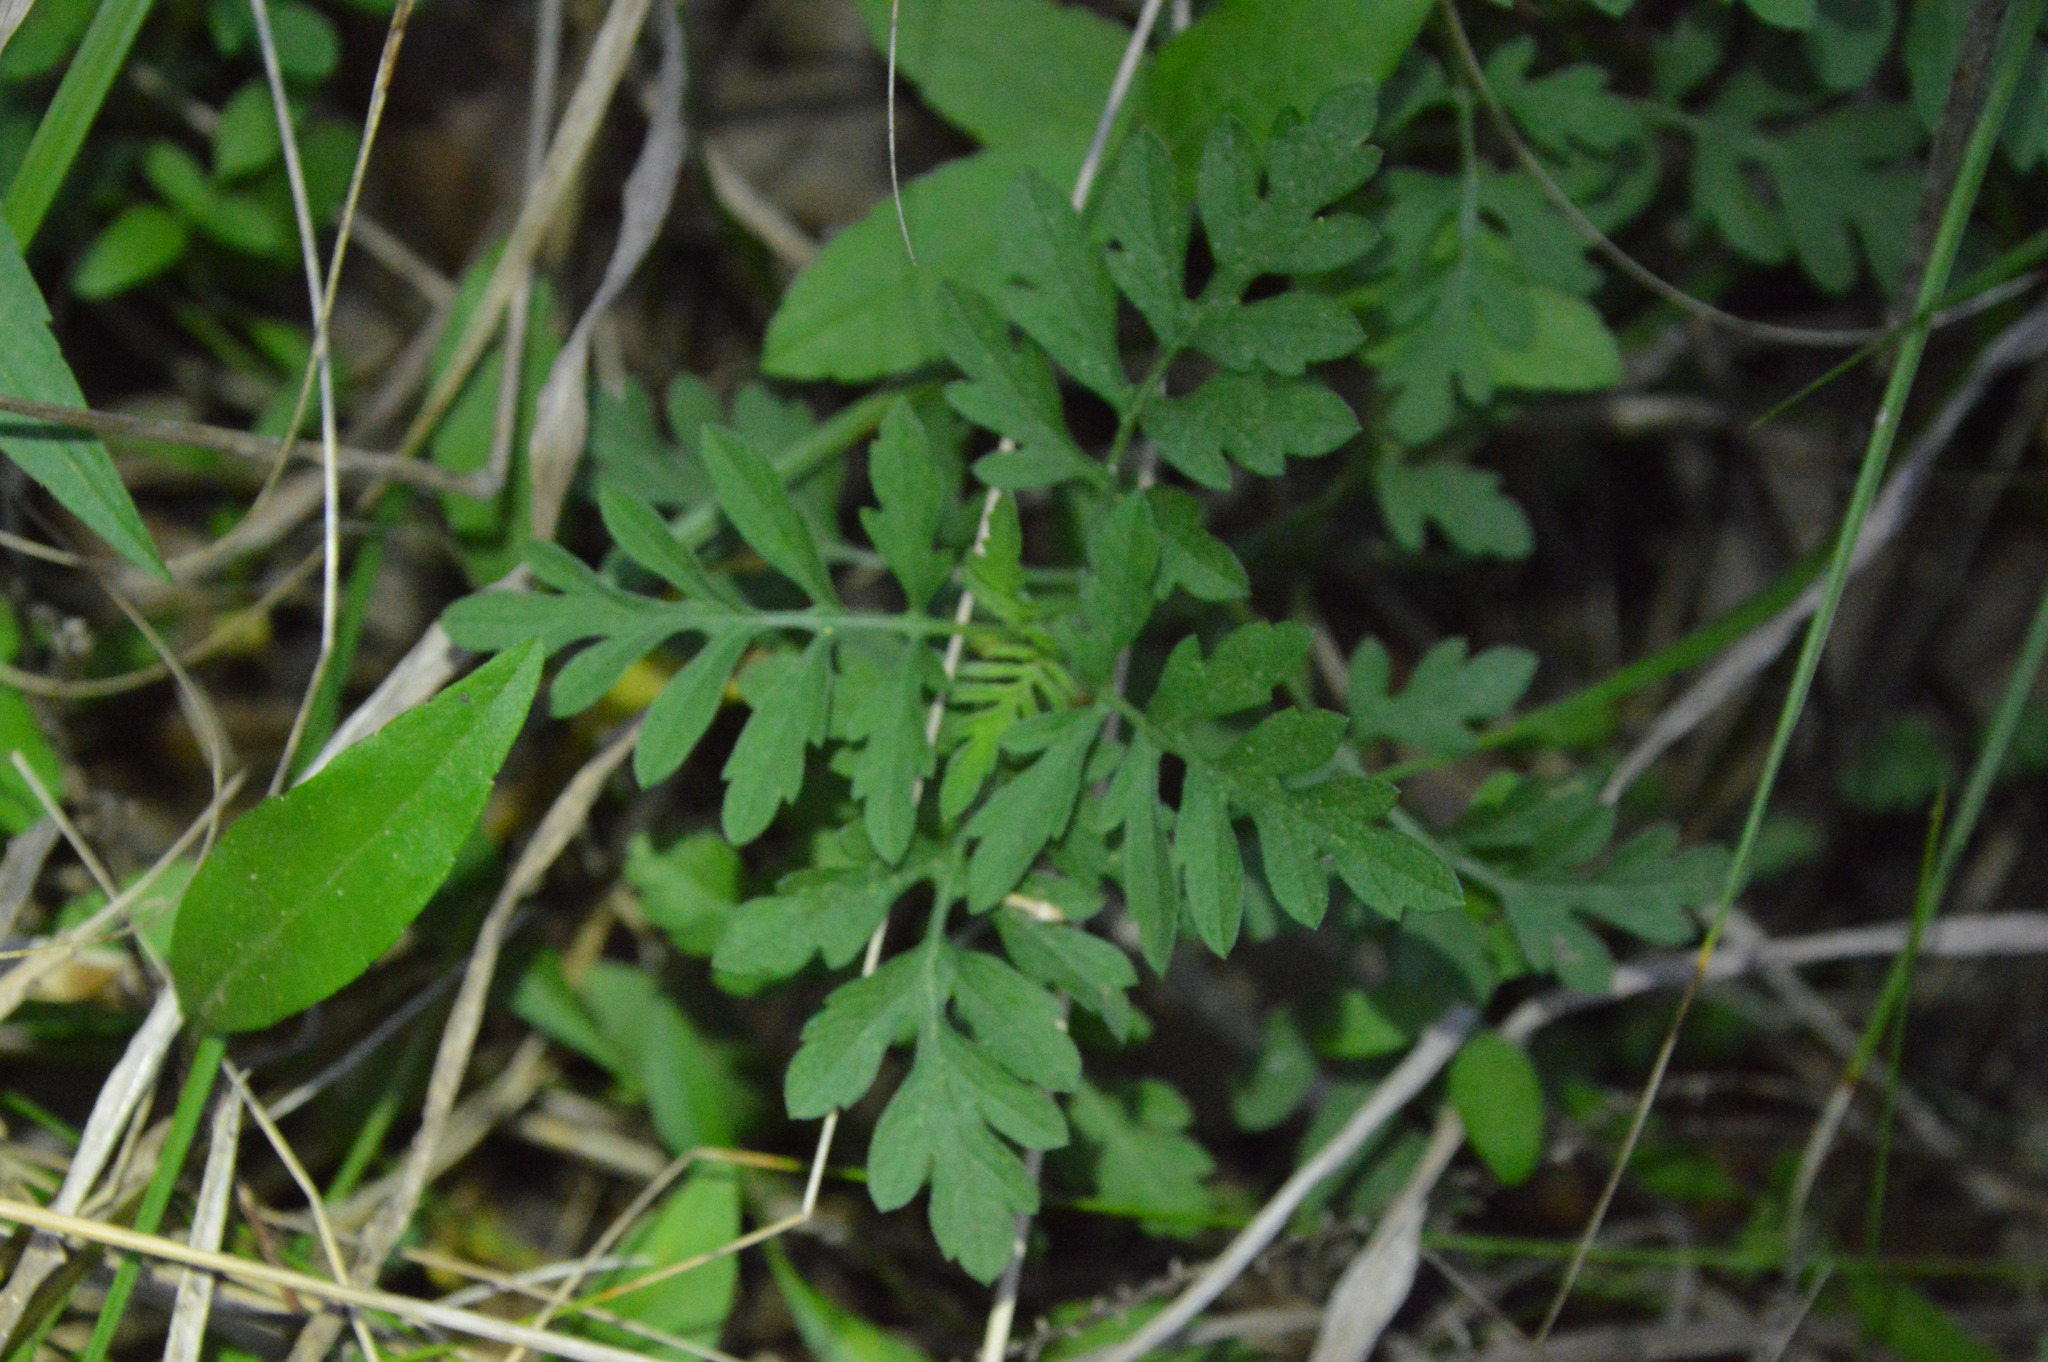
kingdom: Plantae
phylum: Tracheophyta
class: Magnoliopsida
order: Asterales
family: Asteraceae
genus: Ambrosia
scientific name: Ambrosia artemisiifolia
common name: Annual ragweed
